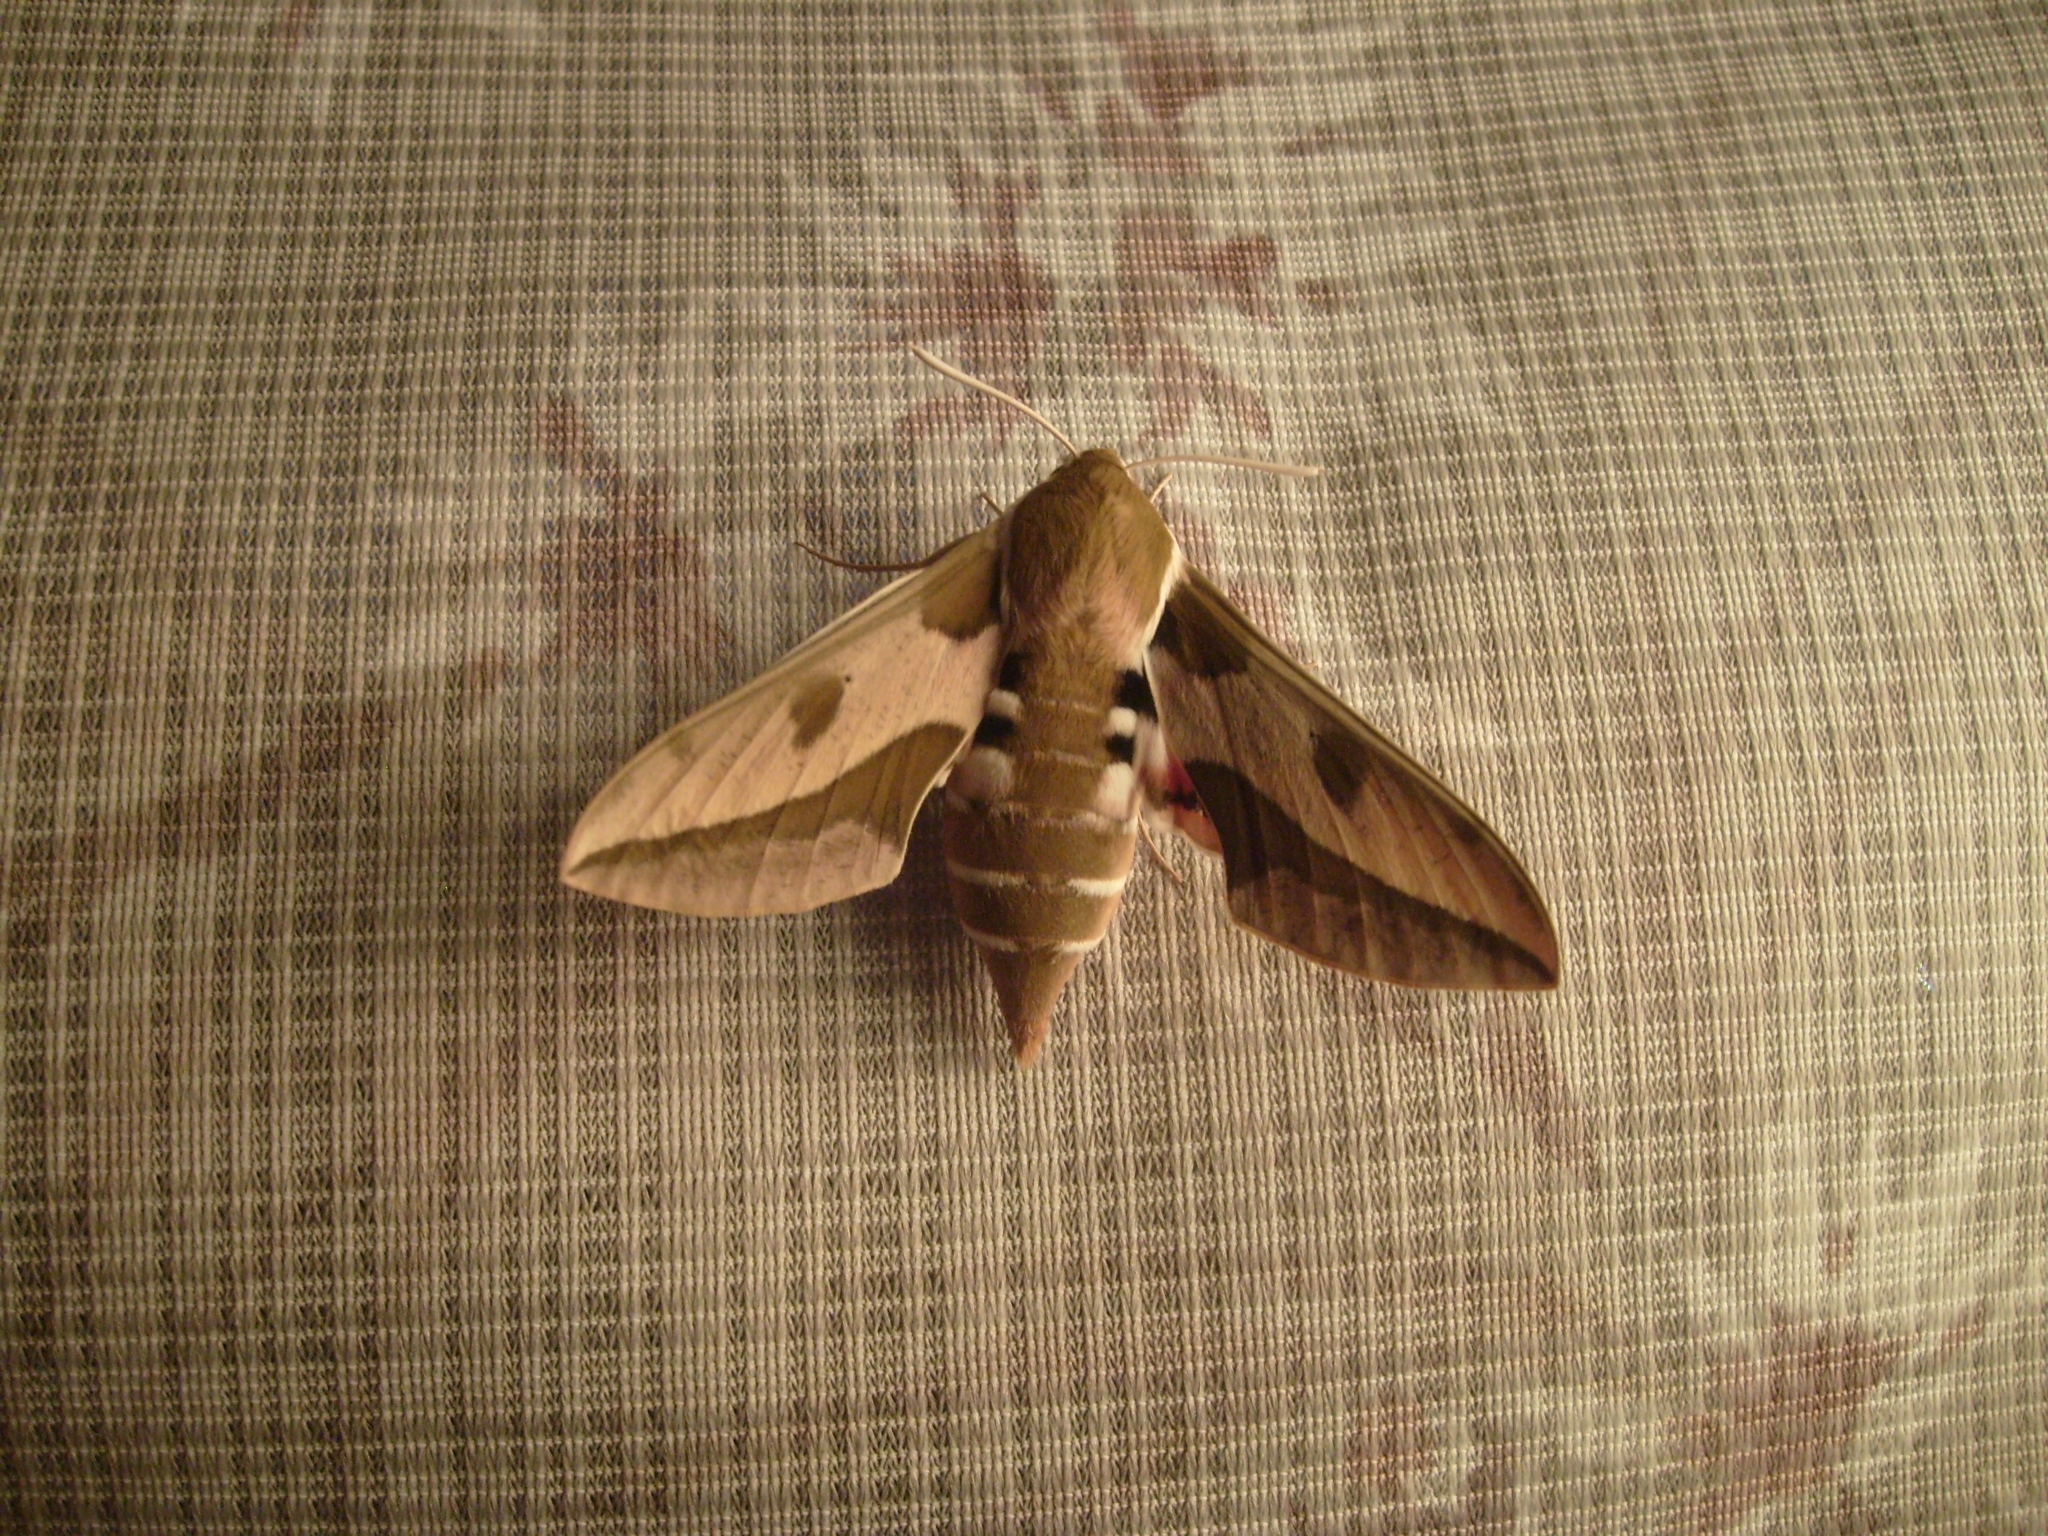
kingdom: Animalia
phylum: Arthropoda
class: Insecta
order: Lepidoptera
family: Sphingidae
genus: Hyles
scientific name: Hyles euphorbiae
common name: Spurge hawk-moth
